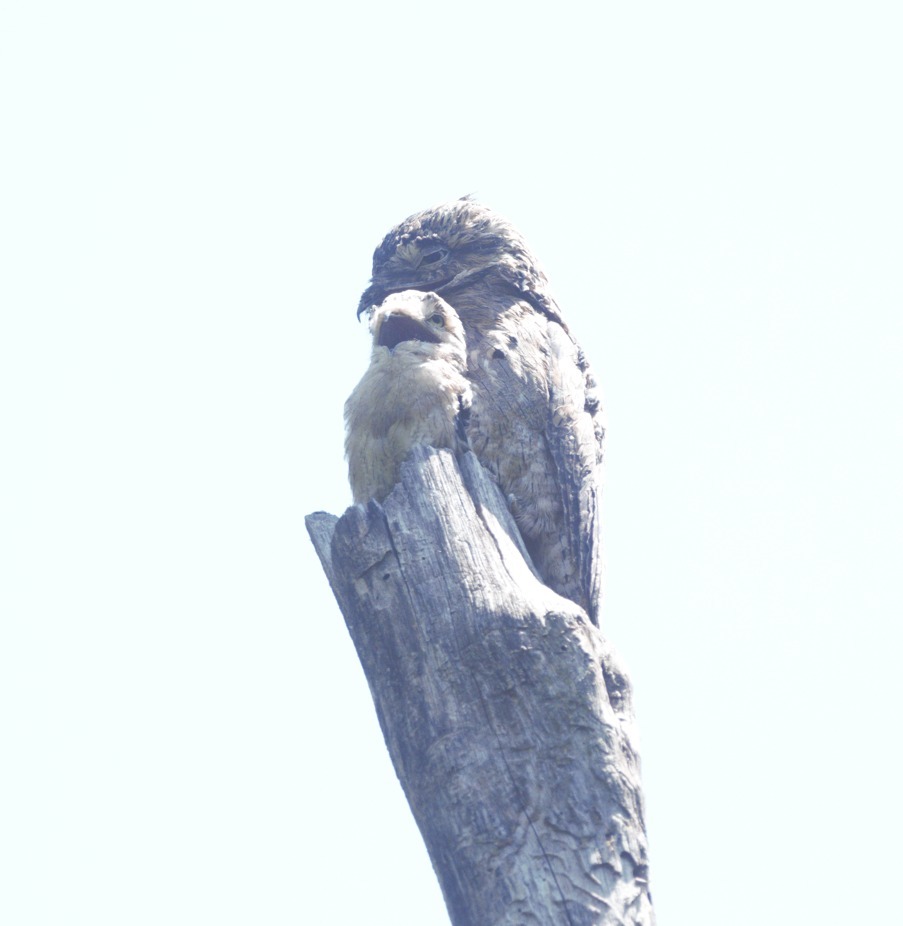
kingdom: Animalia
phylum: Chordata
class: Aves
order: Nyctibiiformes
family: Nyctibiidae
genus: Nyctibius
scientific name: Nyctibius griseus
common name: Common potoo
